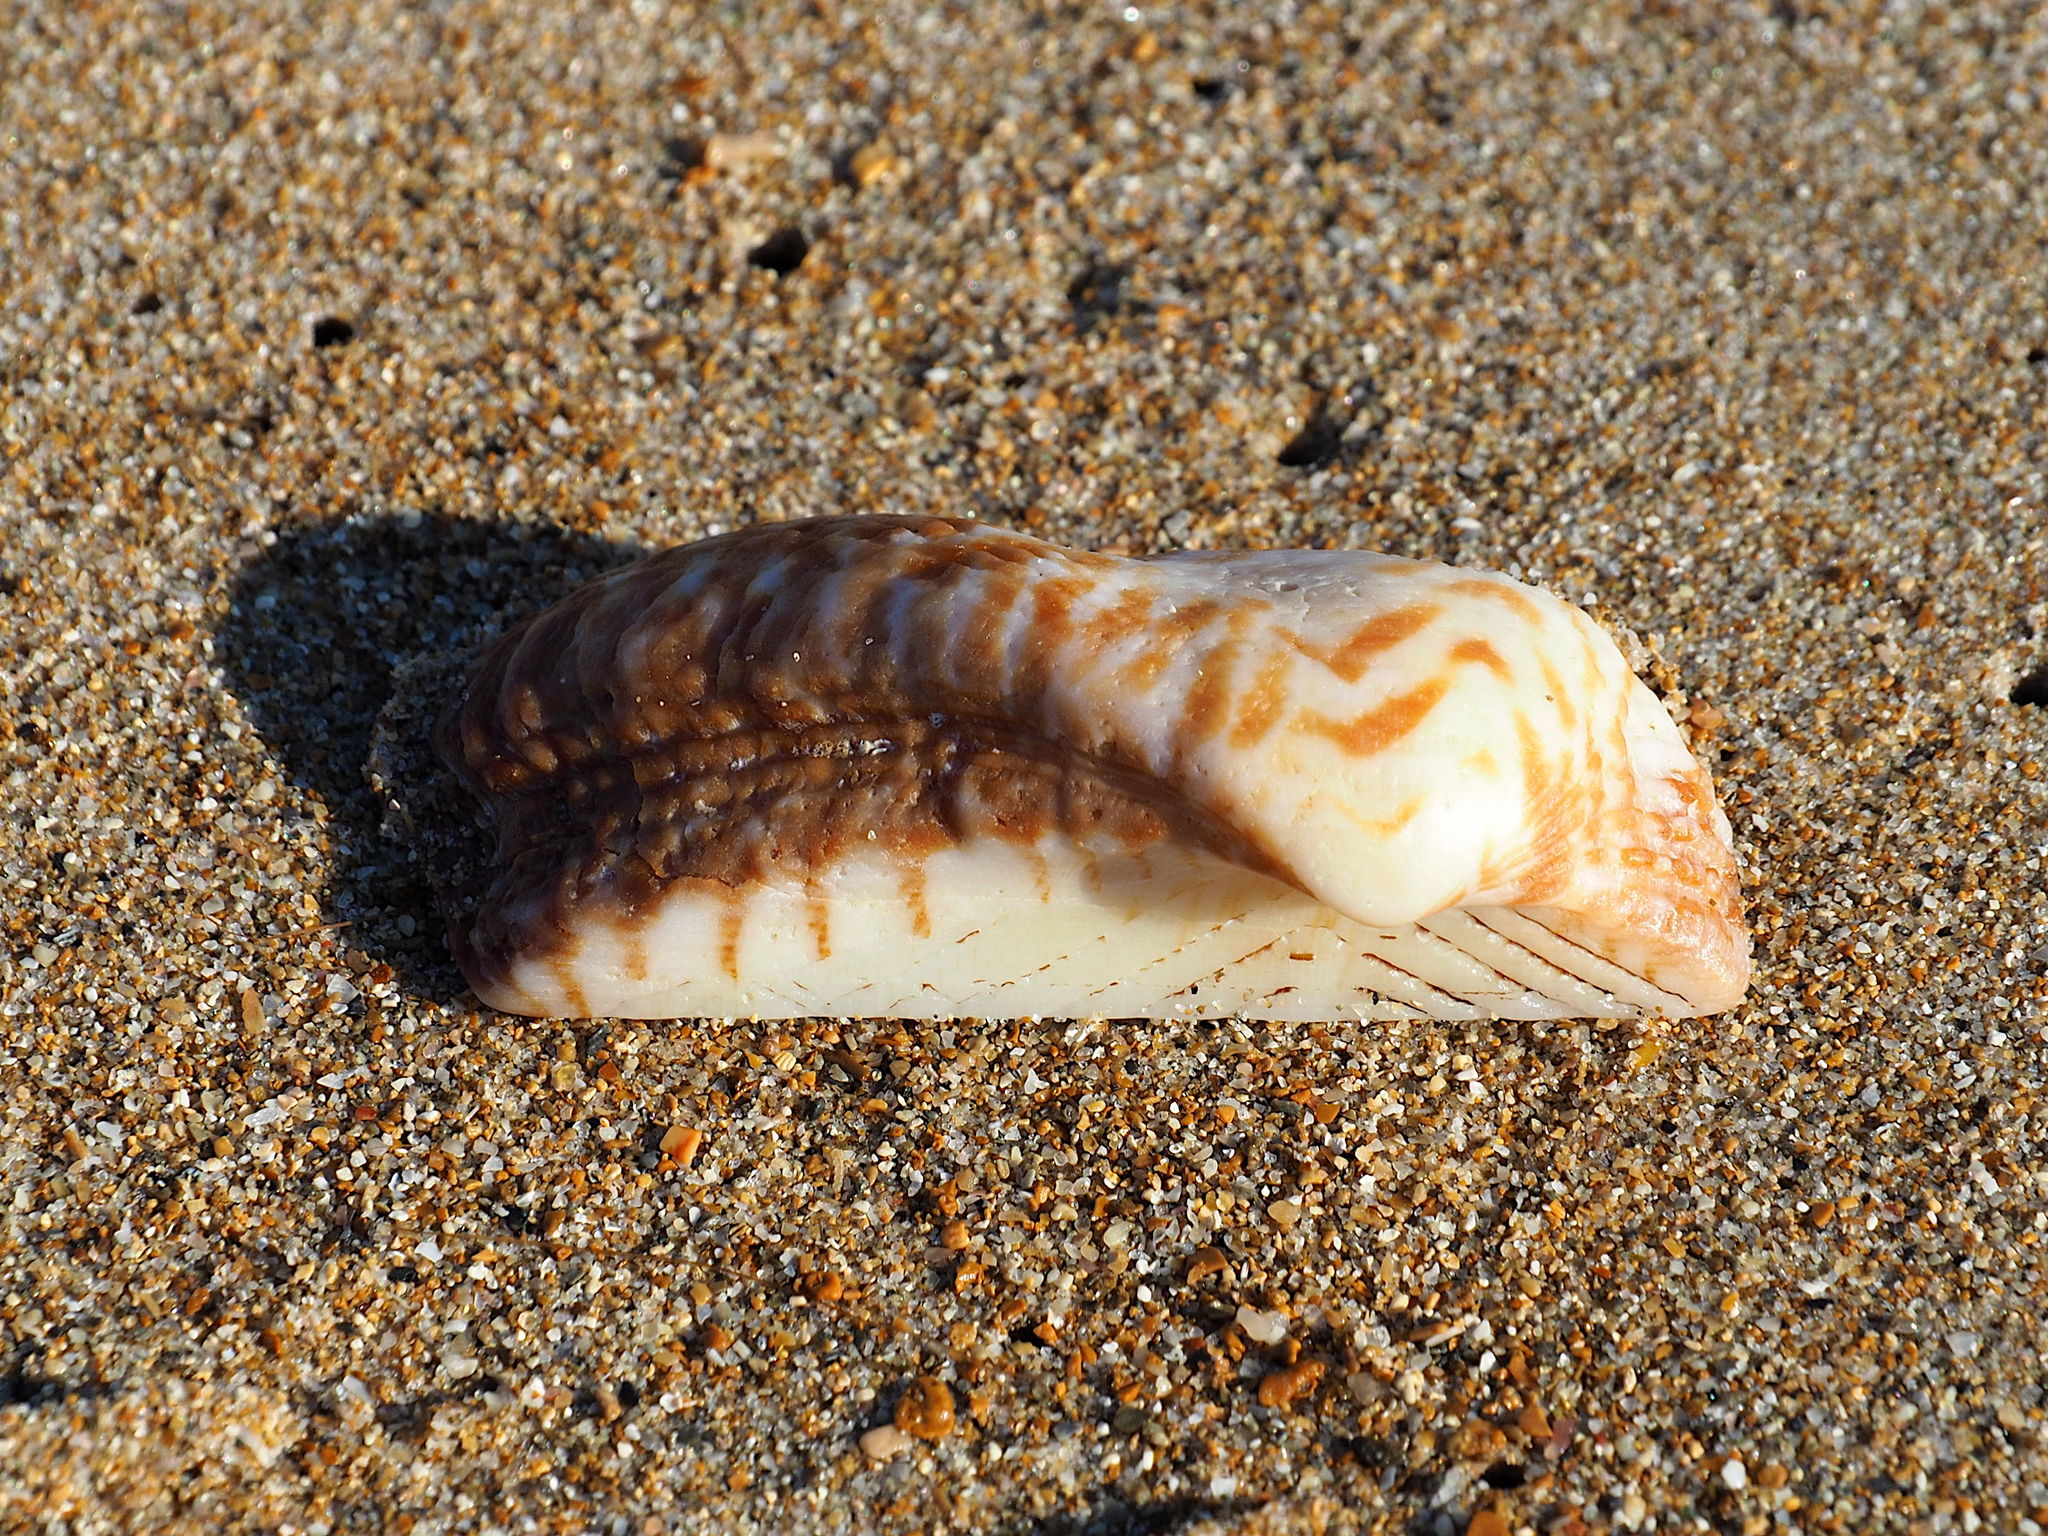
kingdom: Animalia
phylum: Mollusca
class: Bivalvia
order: Arcida
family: Arcidae
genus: Arca
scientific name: Arca noae
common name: Noah's arch
